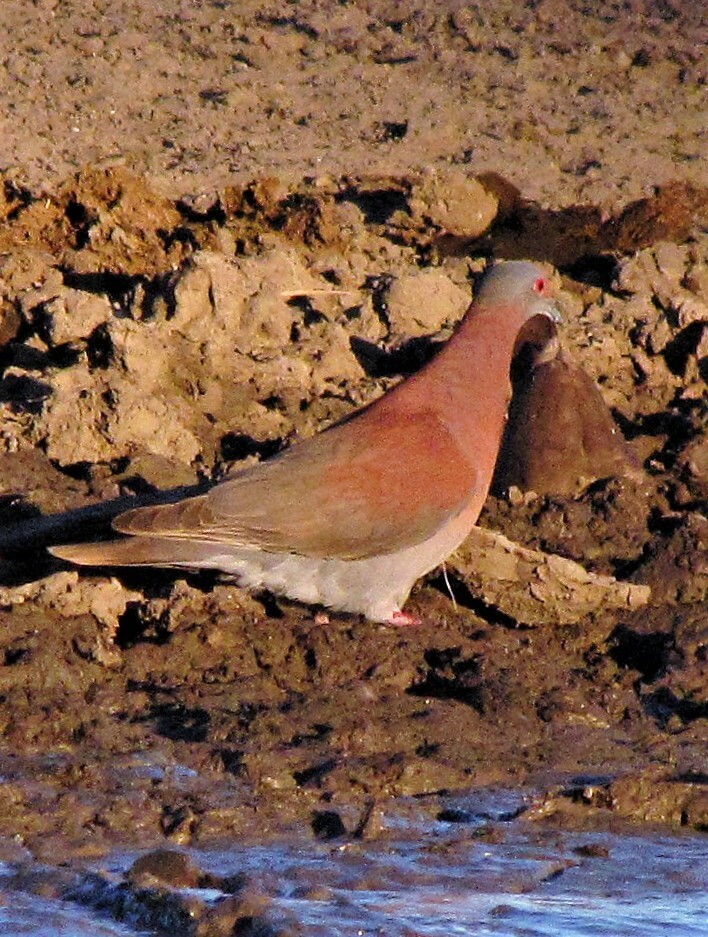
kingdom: Animalia
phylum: Chordata
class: Aves
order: Columbiformes
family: Columbidae
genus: Patagioenas
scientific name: Patagioenas cayennensis
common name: Pale-vented pigeon
